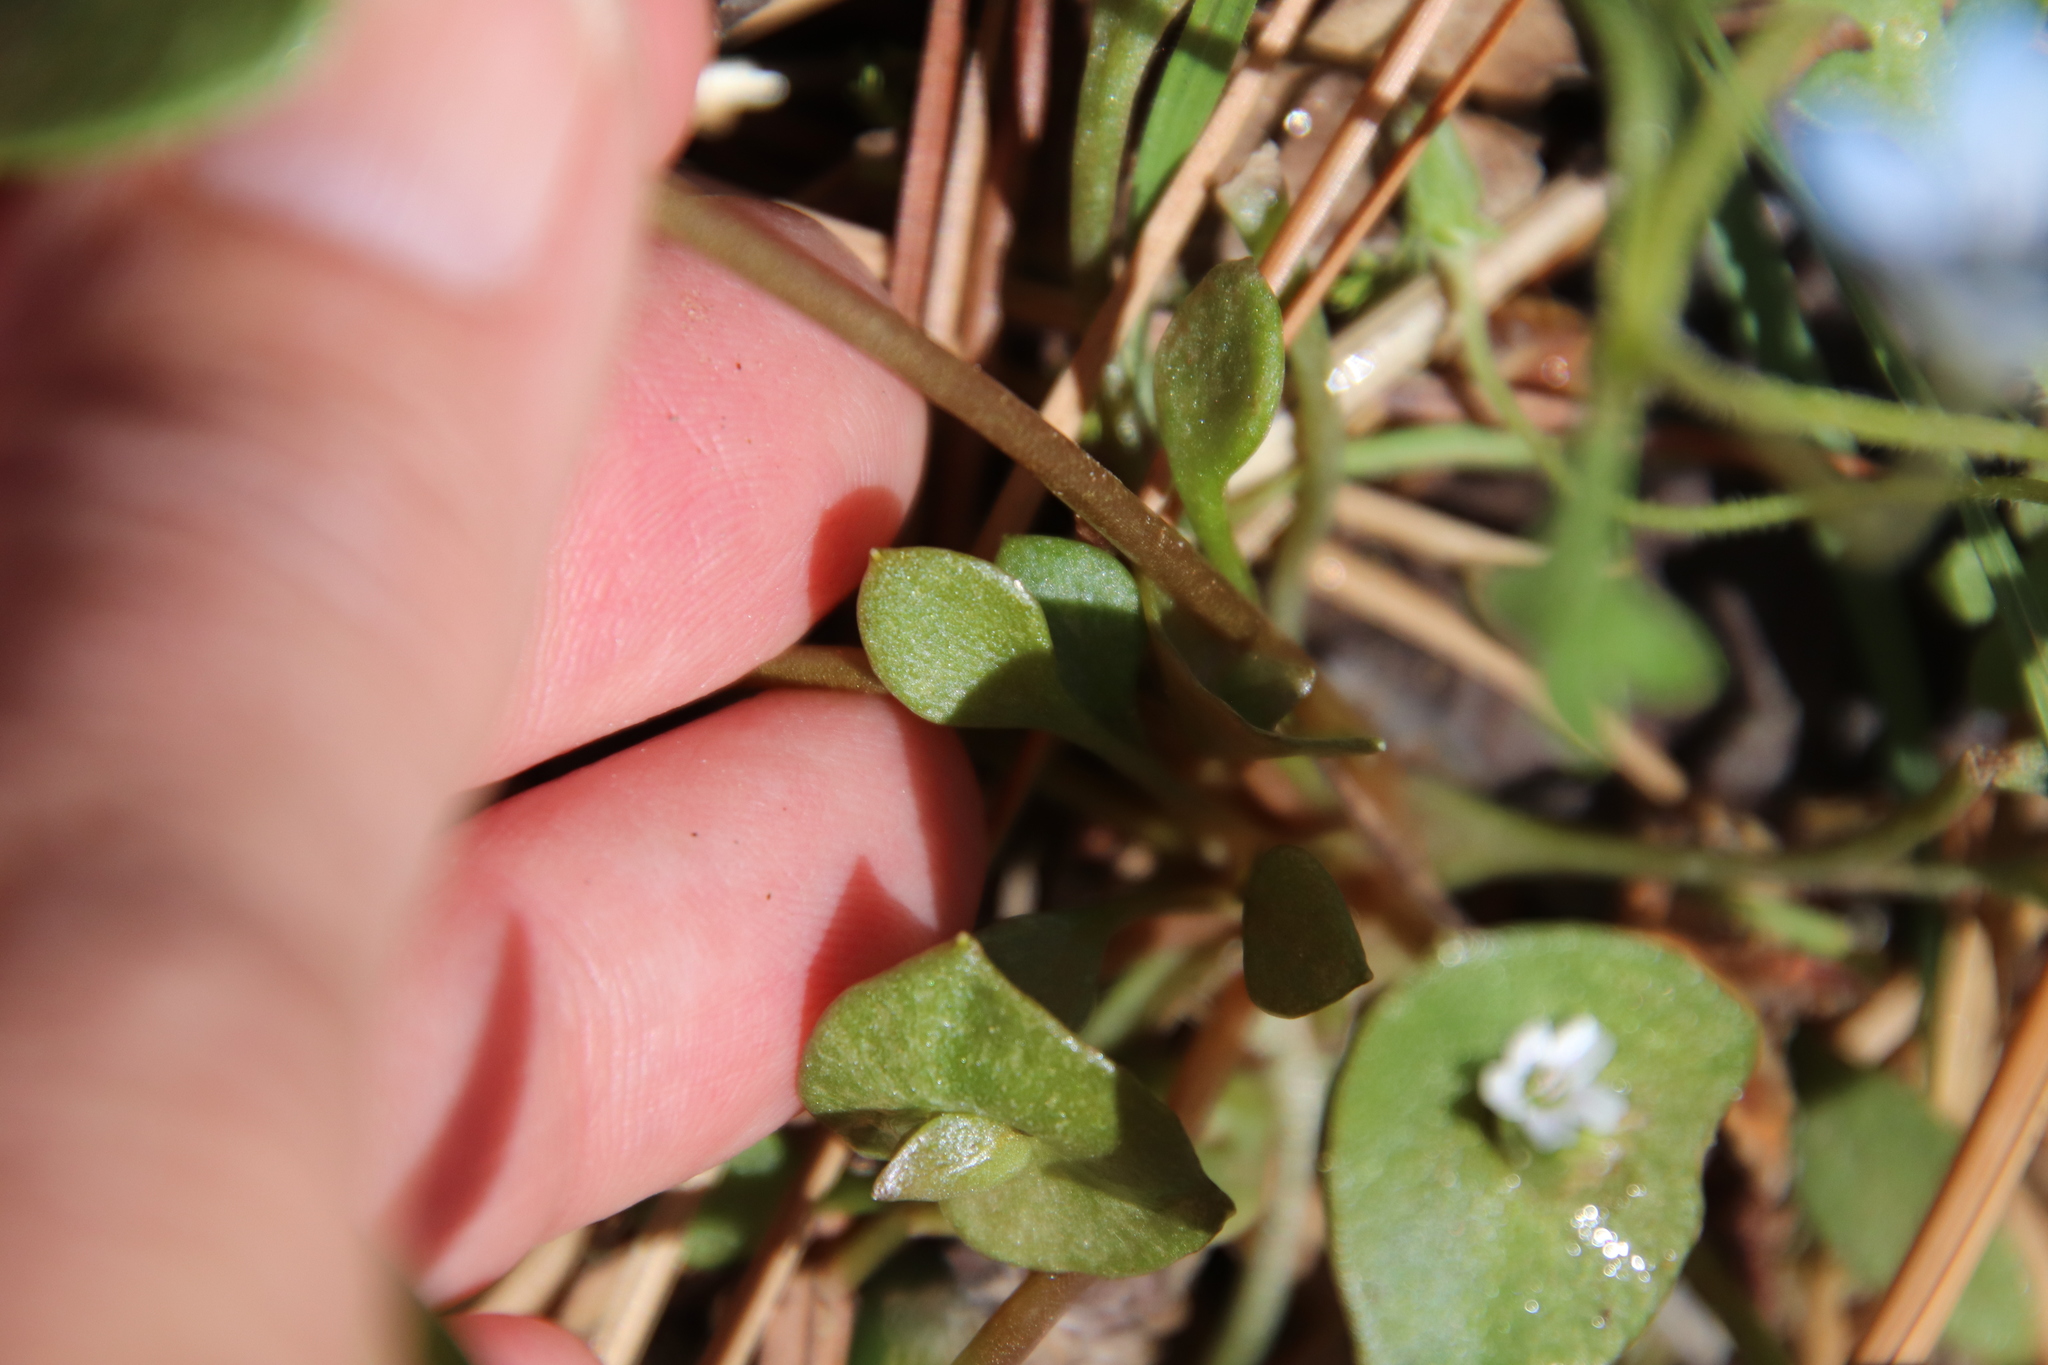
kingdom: Plantae
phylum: Tracheophyta
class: Magnoliopsida
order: Caryophyllales
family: Montiaceae
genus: Claytonia
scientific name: Claytonia perfoliata
